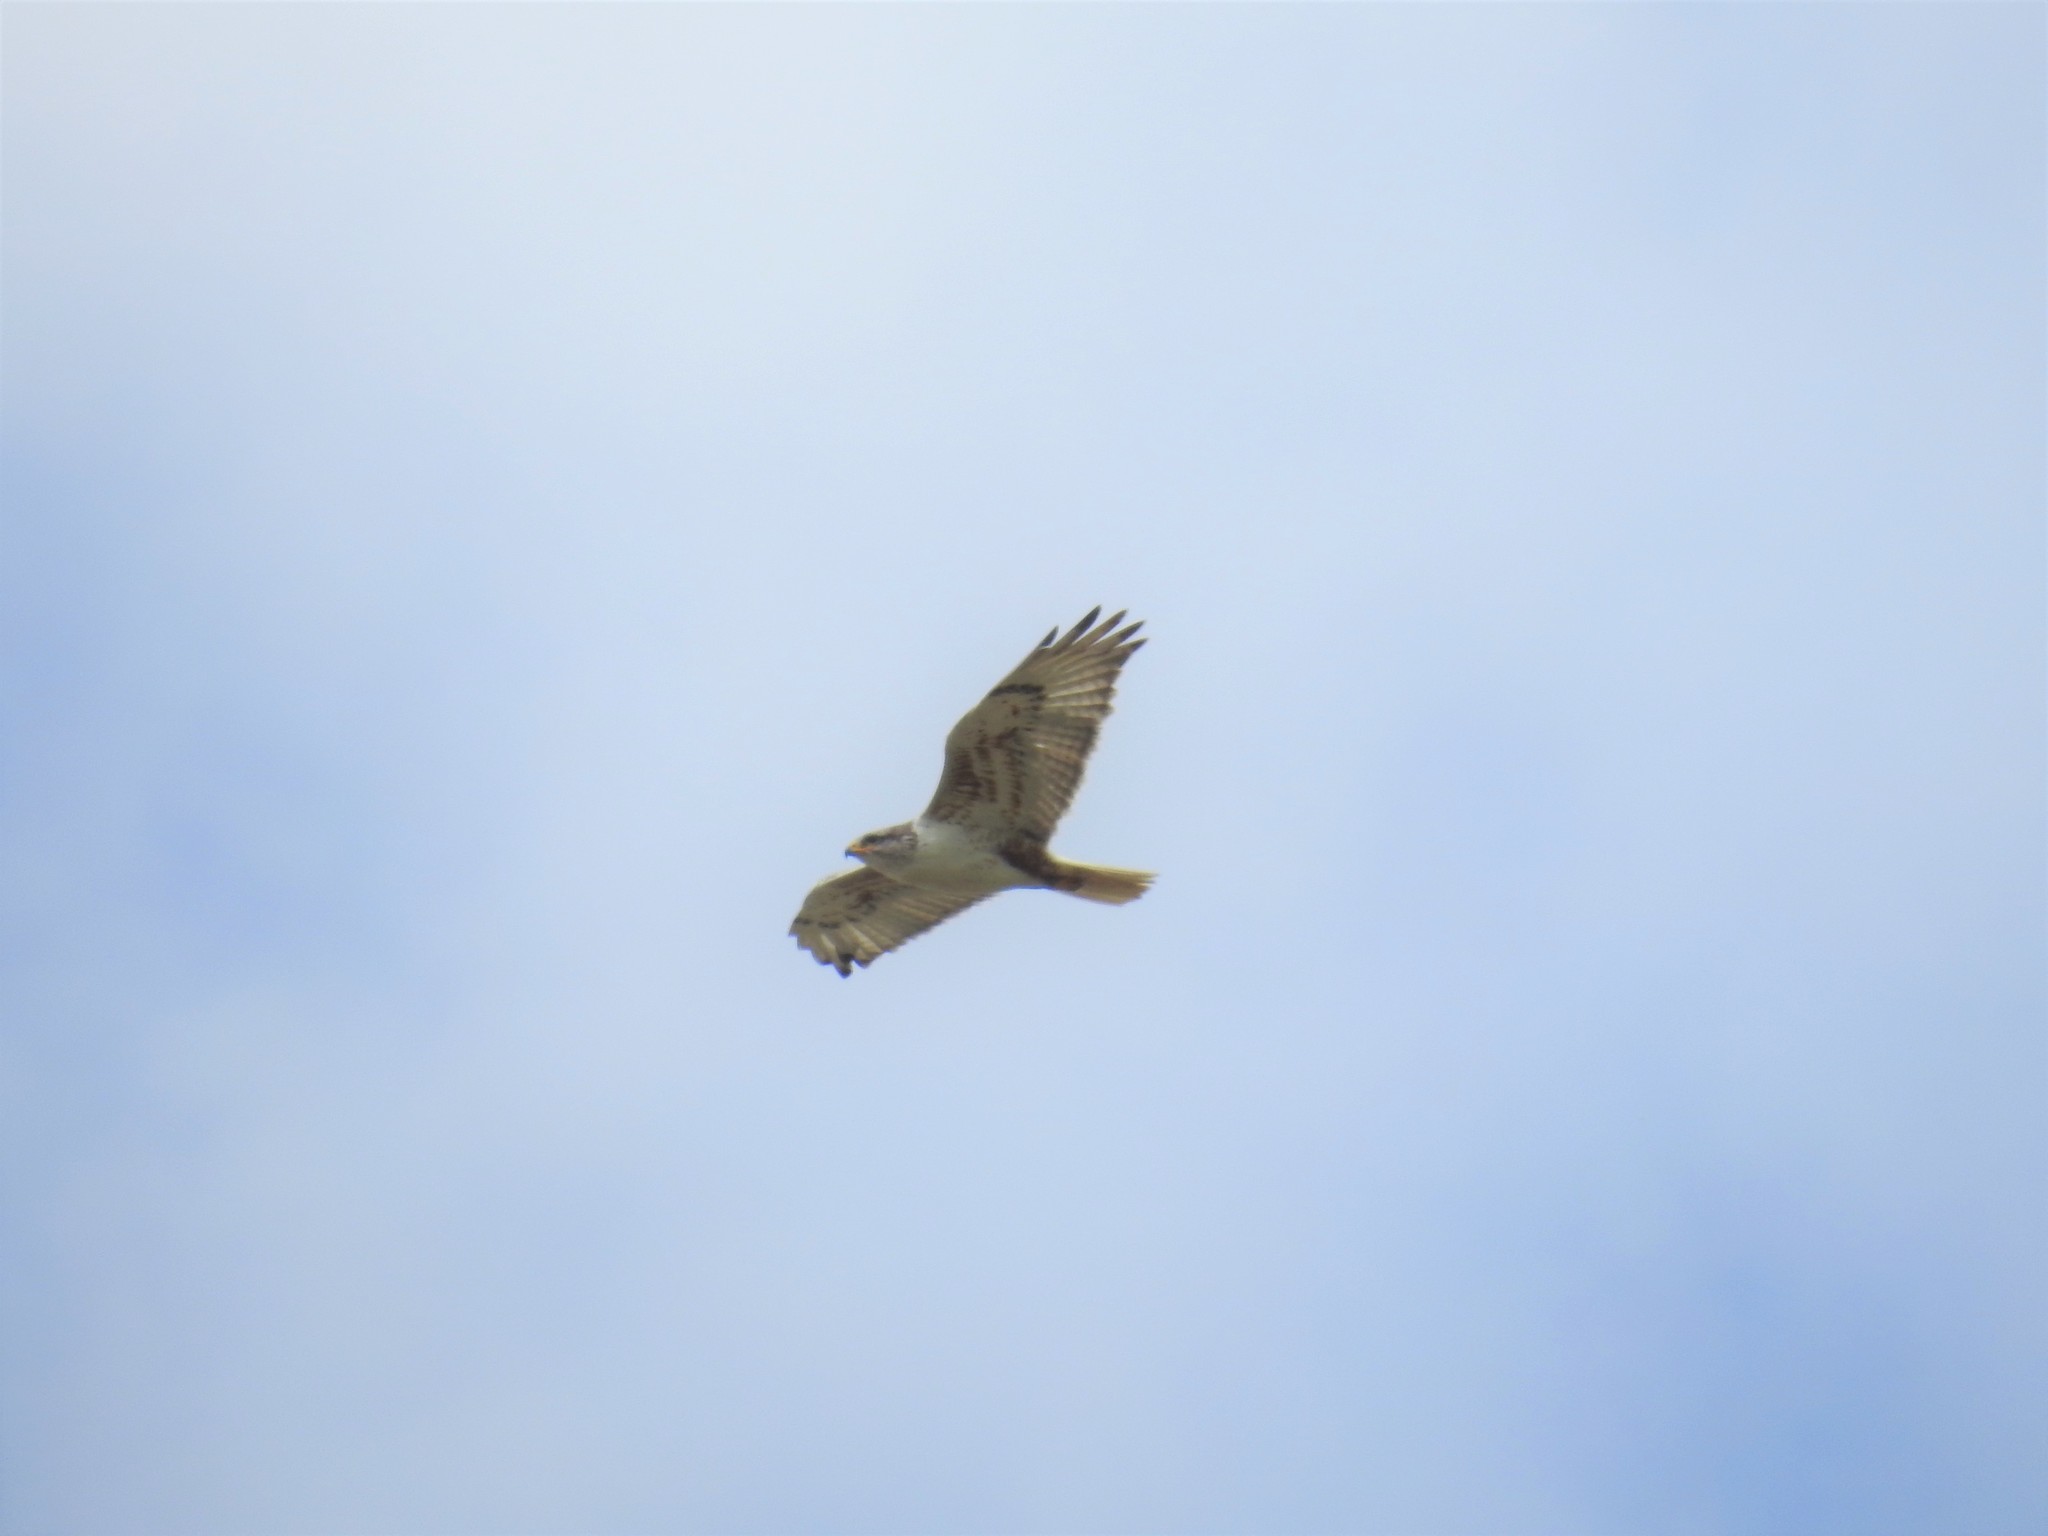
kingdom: Animalia
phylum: Chordata
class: Aves
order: Accipitriformes
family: Accipitridae
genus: Buteo
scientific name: Buteo regalis
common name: Ferruginous hawk
